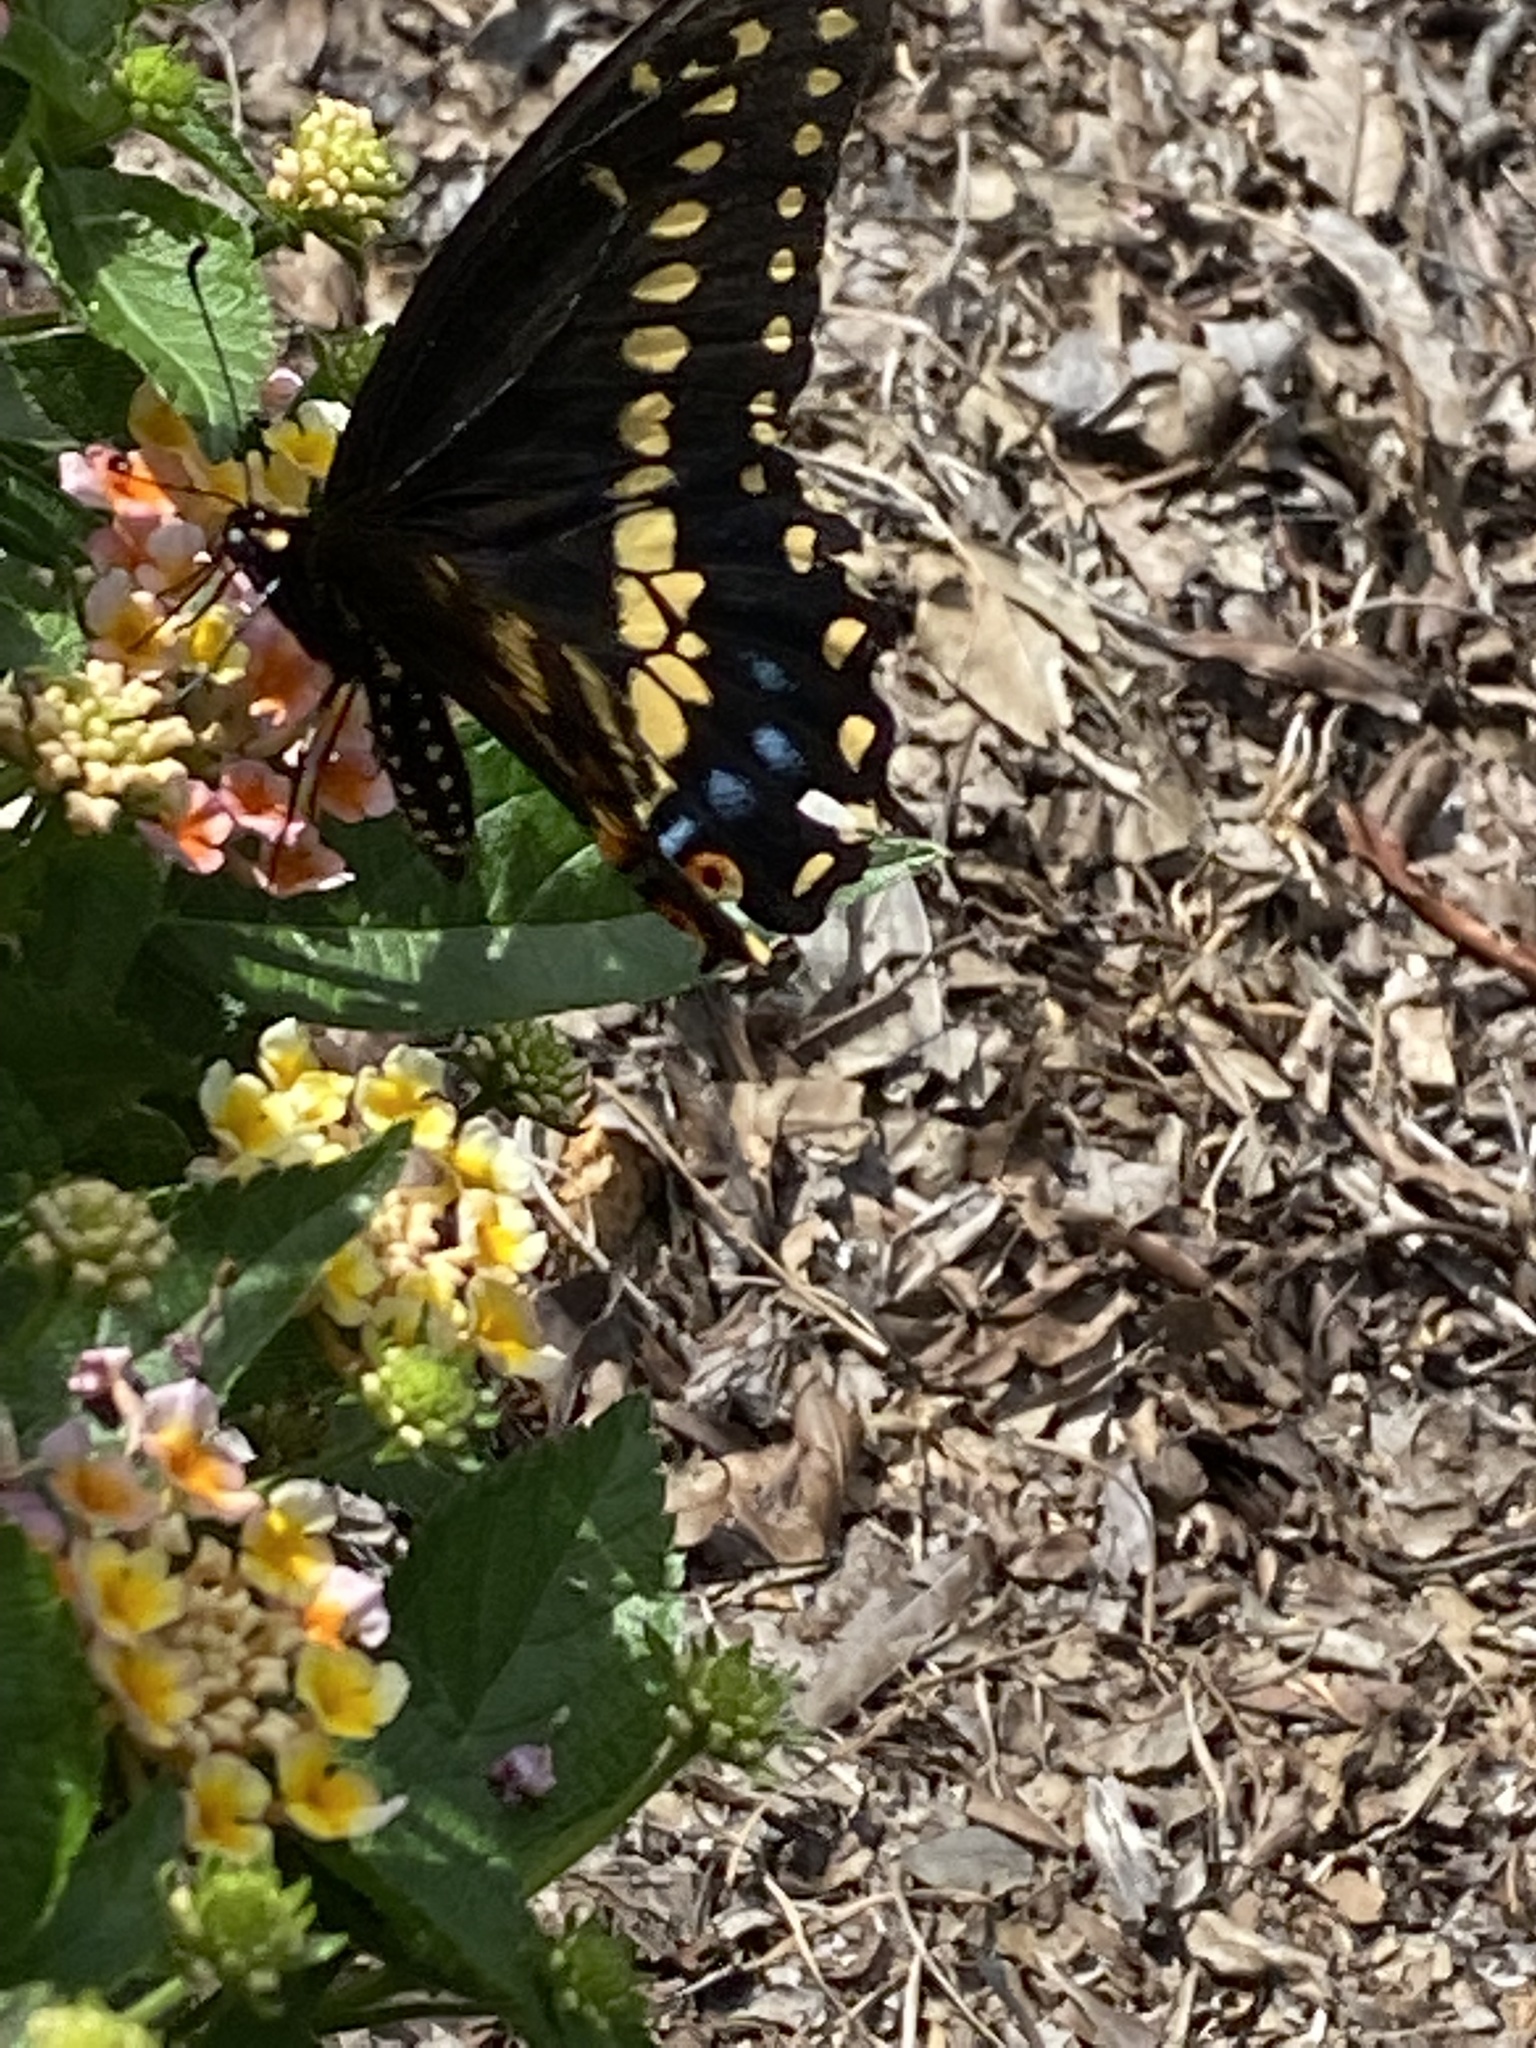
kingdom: Animalia
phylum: Arthropoda
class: Insecta
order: Lepidoptera
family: Papilionidae
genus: Papilio
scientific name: Papilio polyxenes
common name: Black swallowtail
